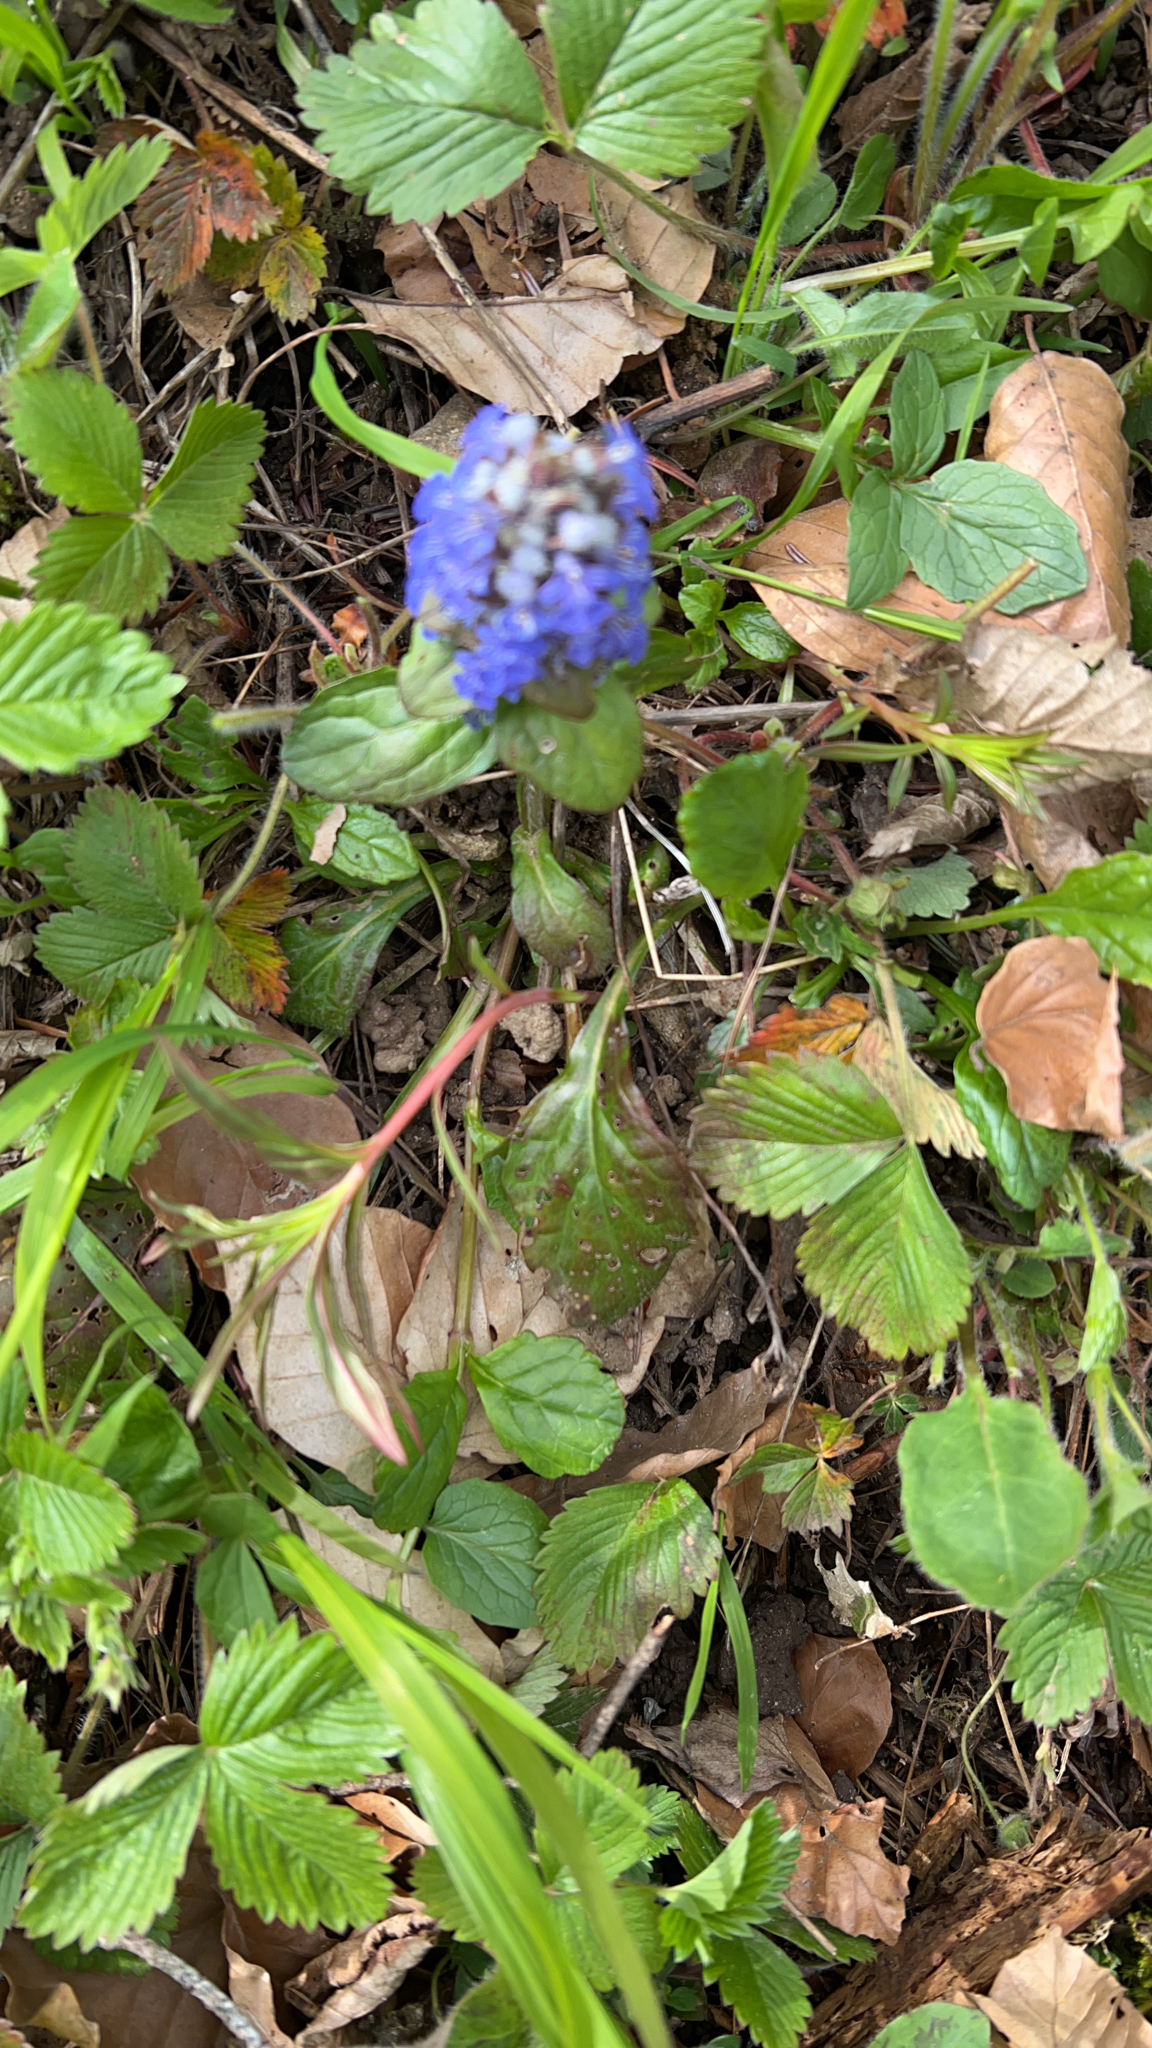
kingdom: Plantae
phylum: Tracheophyta
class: Magnoliopsida
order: Lamiales
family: Lamiaceae
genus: Ajuga
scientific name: Ajuga reptans
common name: Bugle
